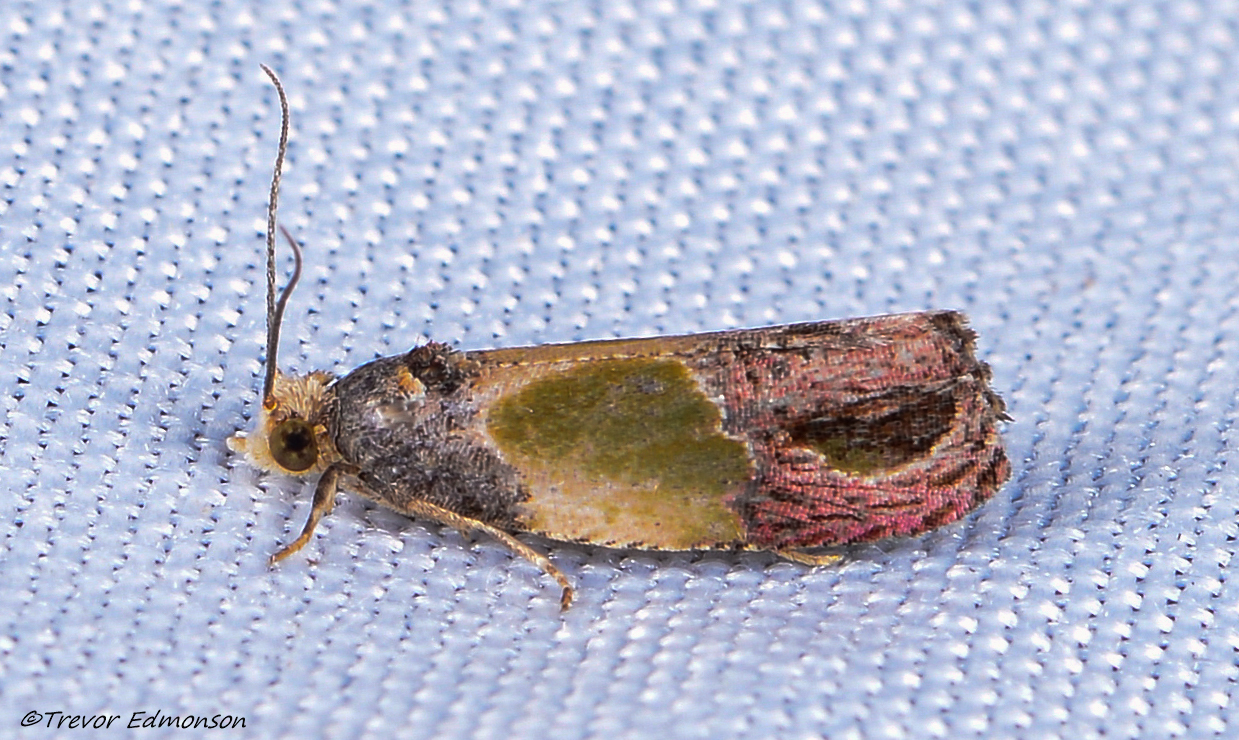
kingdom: Animalia
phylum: Arthropoda
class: Insecta
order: Lepidoptera
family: Tortricidae
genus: Eumarozia
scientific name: Eumarozia malachitana
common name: Sculptured moth
